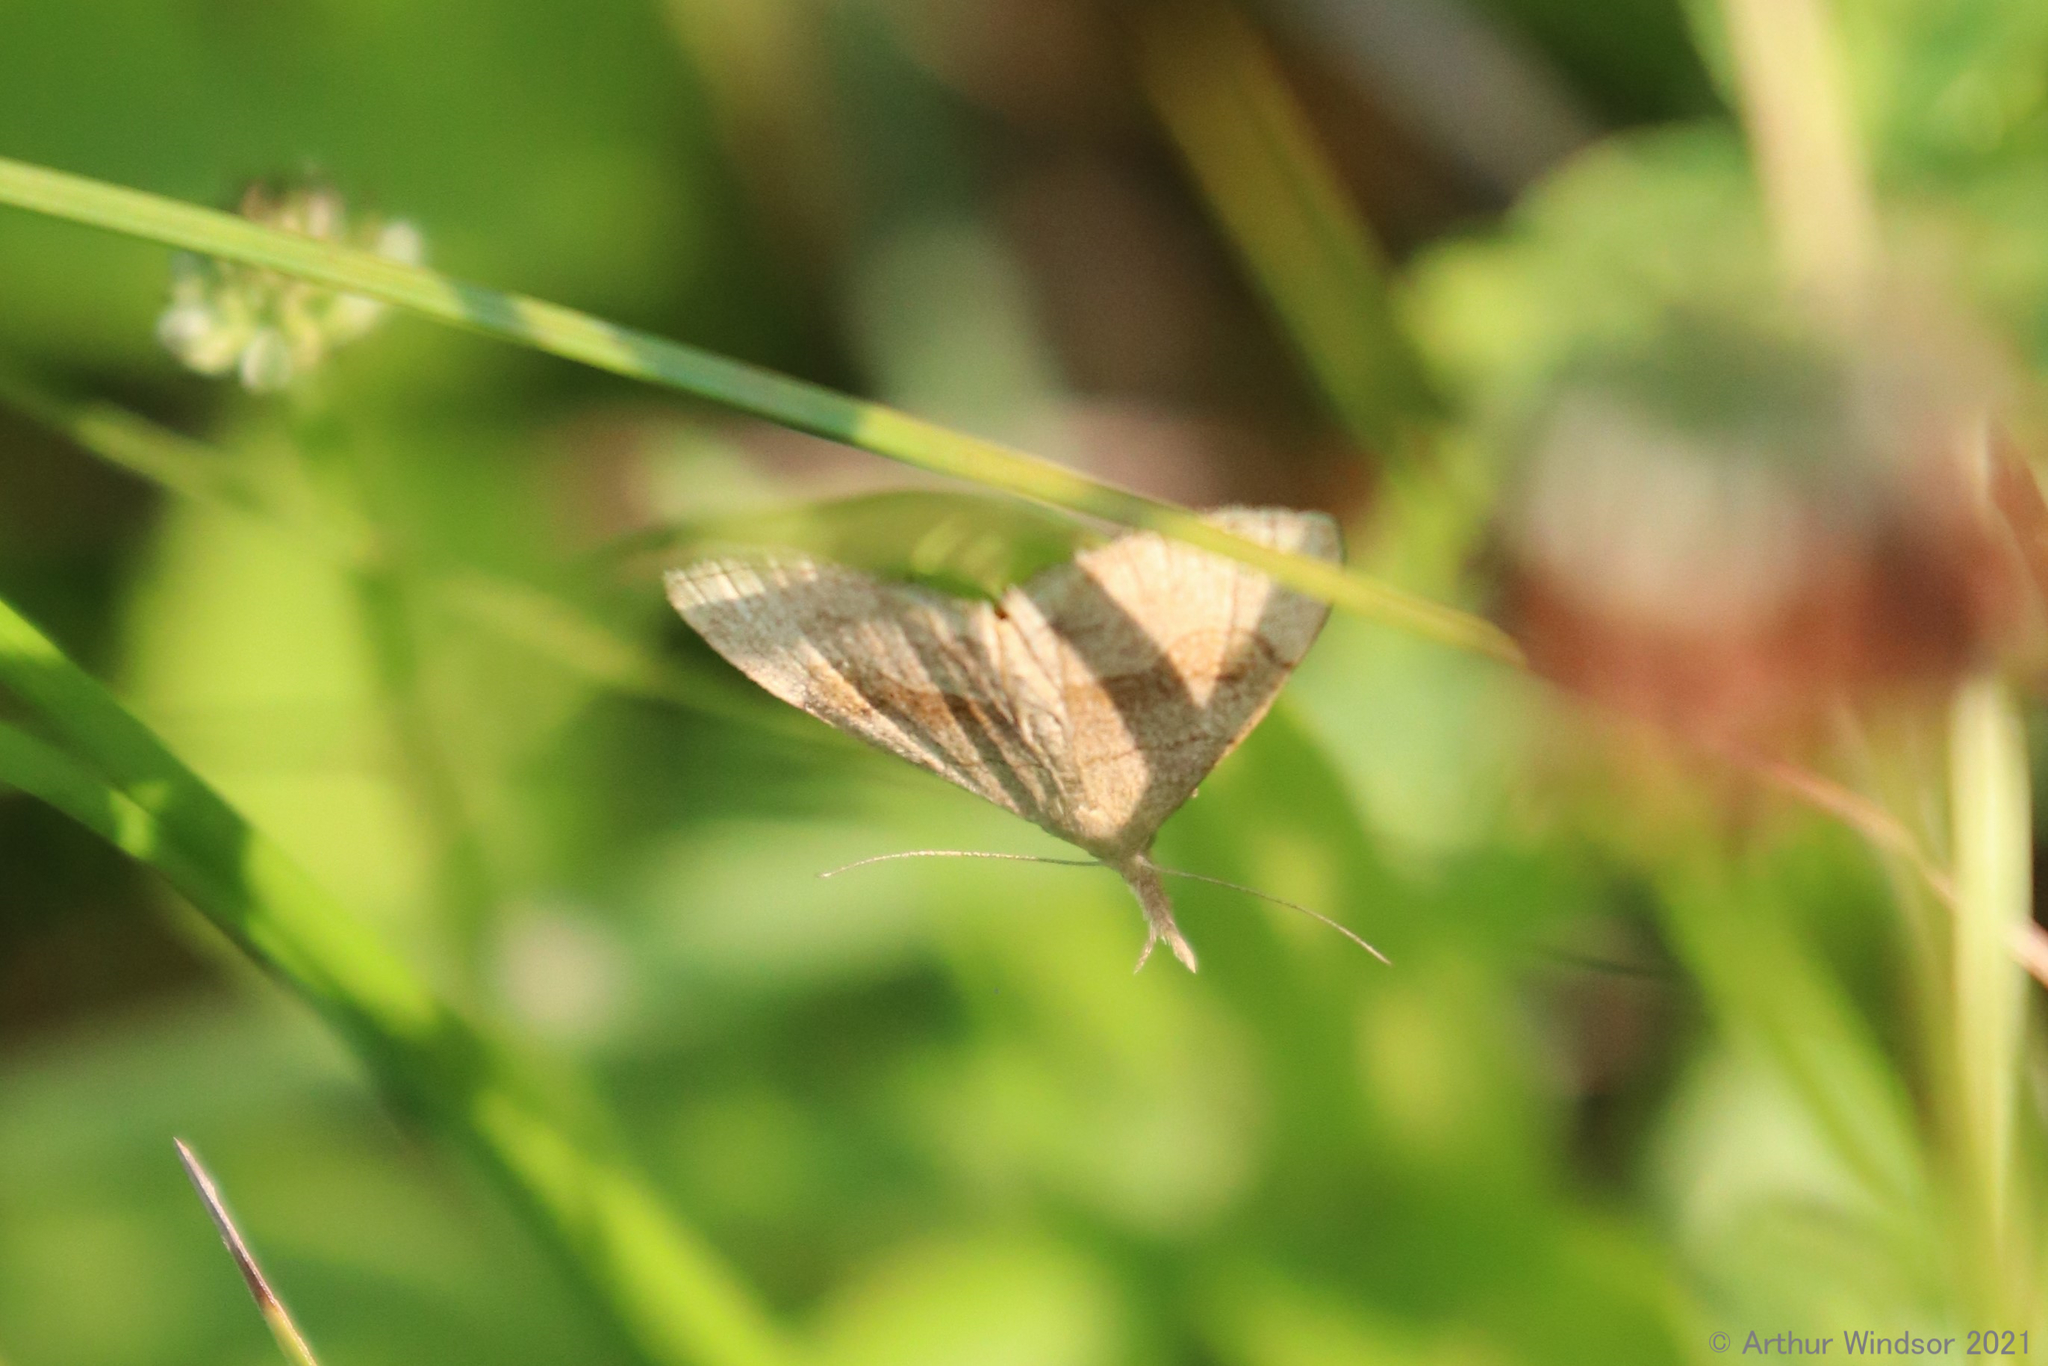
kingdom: Animalia
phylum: Arthropoda
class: Insecta
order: Lepidoptera
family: Erebidae
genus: Phalaenostola
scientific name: Phalaenostola metonalis
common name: Pale phalaenostola moth
